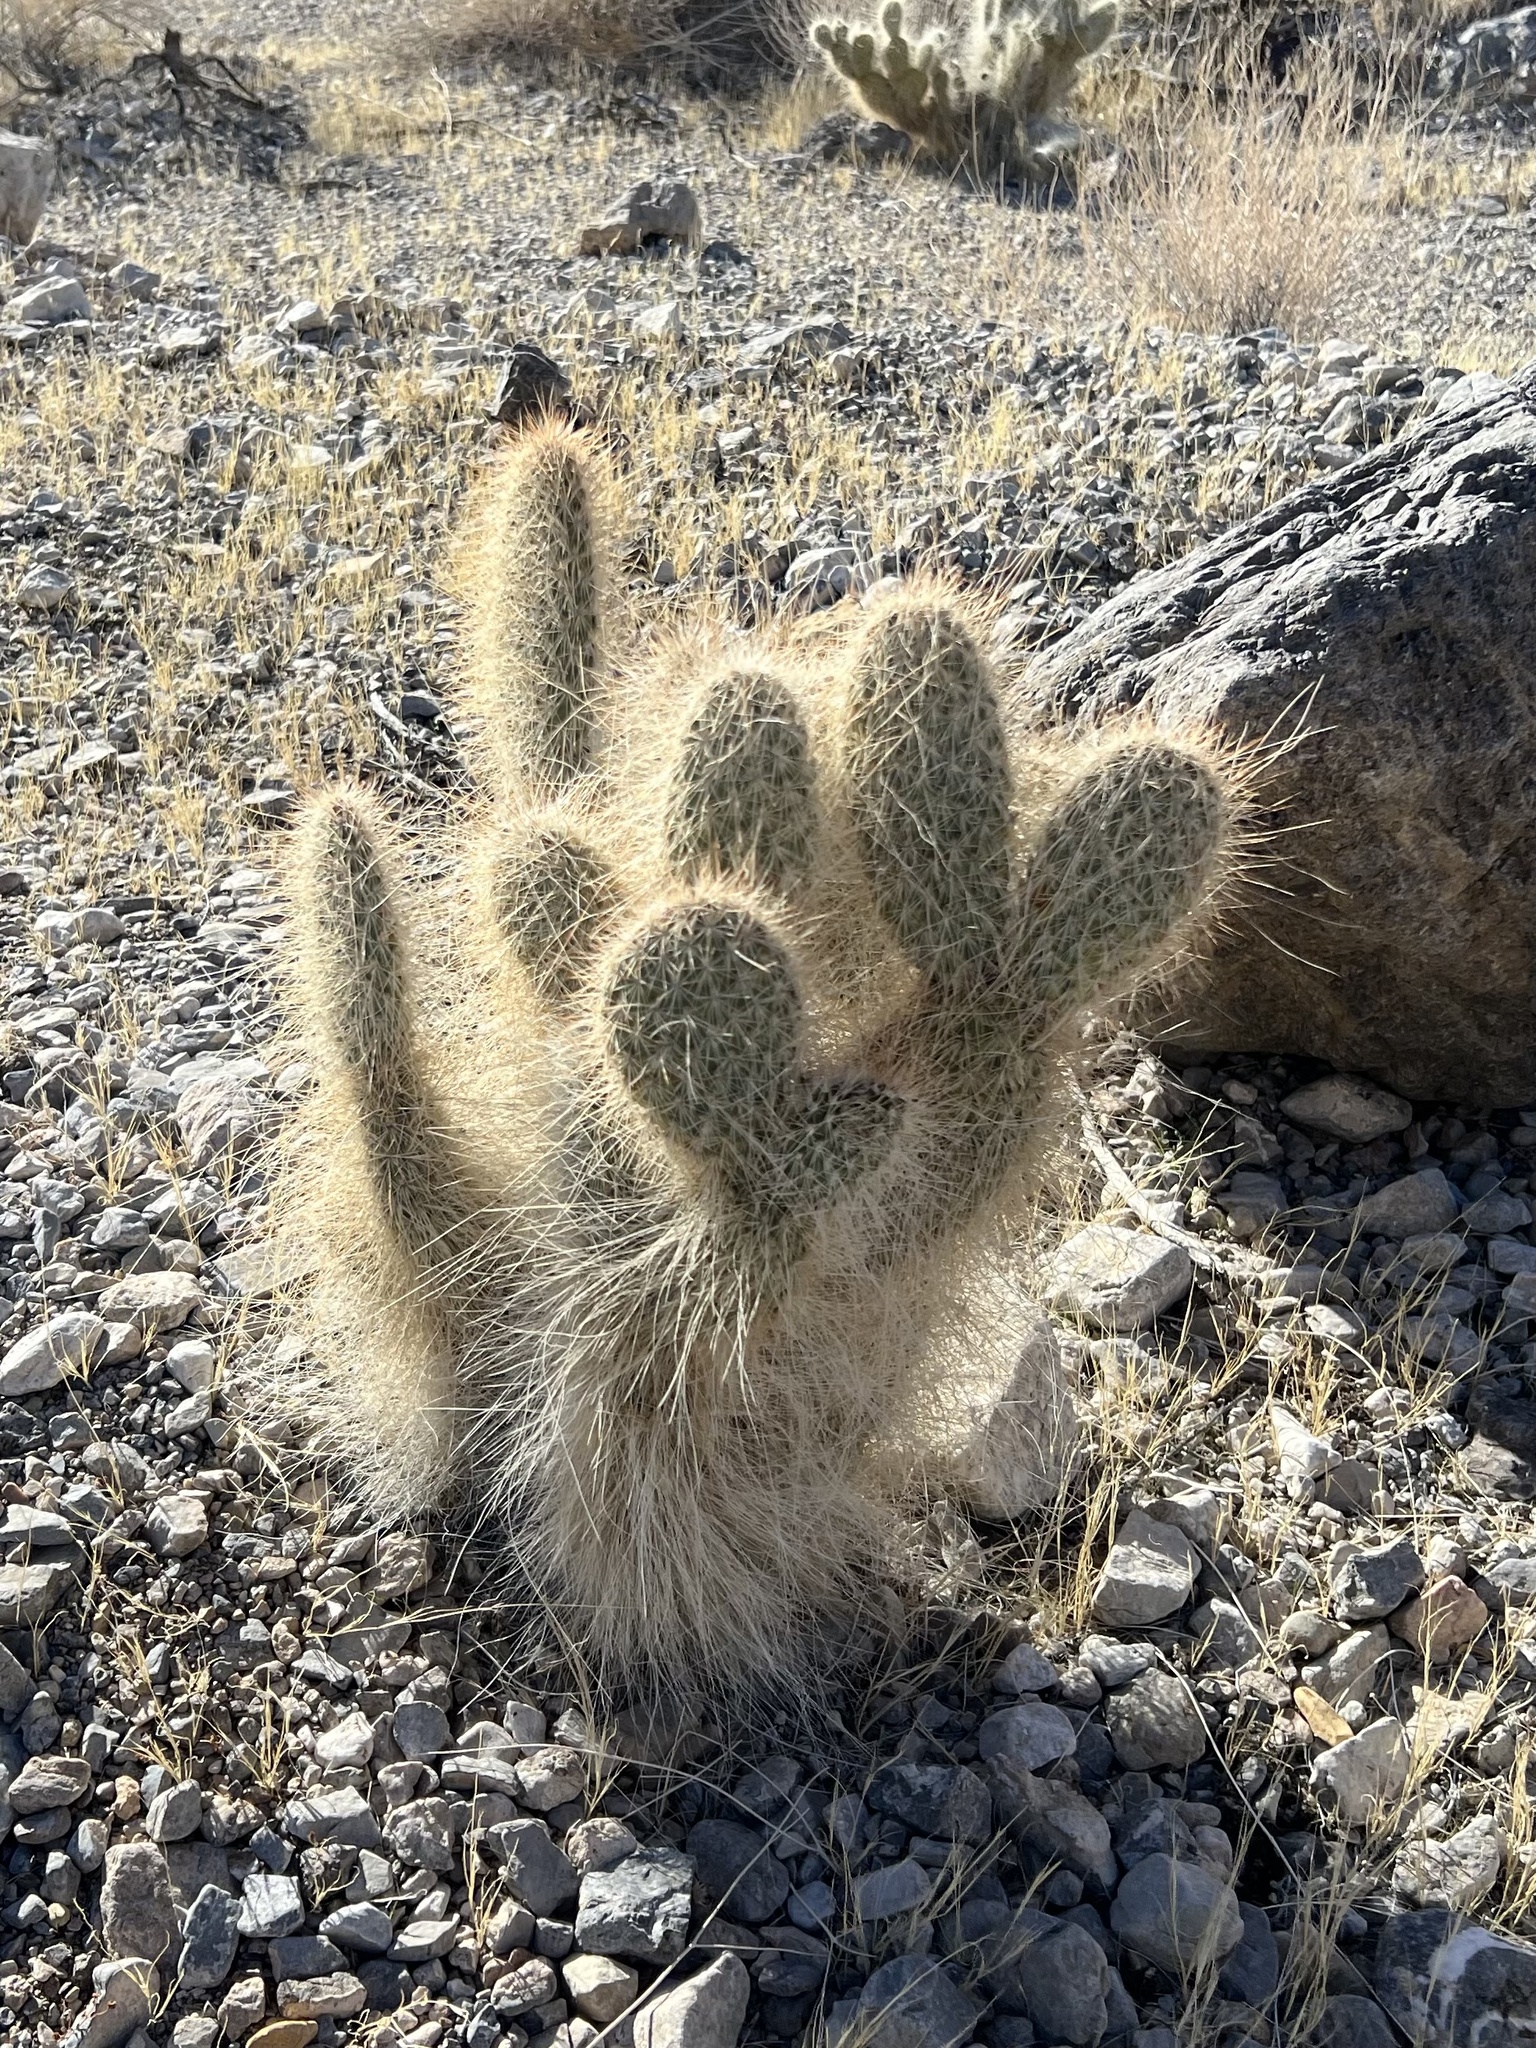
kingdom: Plantae
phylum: Tracheophyta
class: Magnoliopsida
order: Caryophyllales
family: Cactaceae
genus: Opuntia
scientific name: Opuntia polyacantha
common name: Plains prickly-pear
